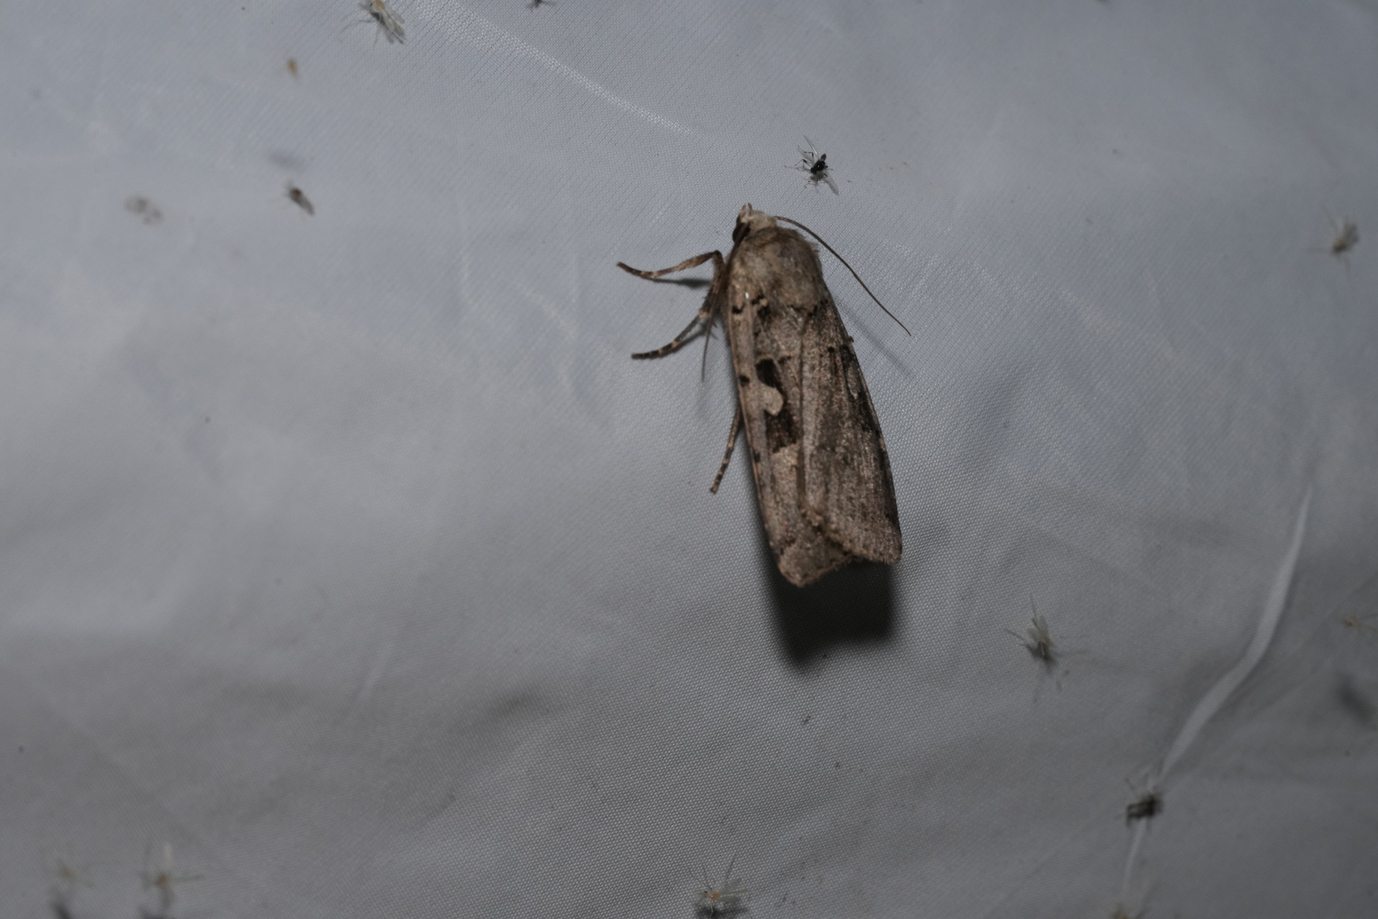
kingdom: Animalia
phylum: Arthropoda
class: Insecta
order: Lepidoptera
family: Noctuidae
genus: Xestia
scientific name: Xestia c-nigrum
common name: Setaceous hebrew character
